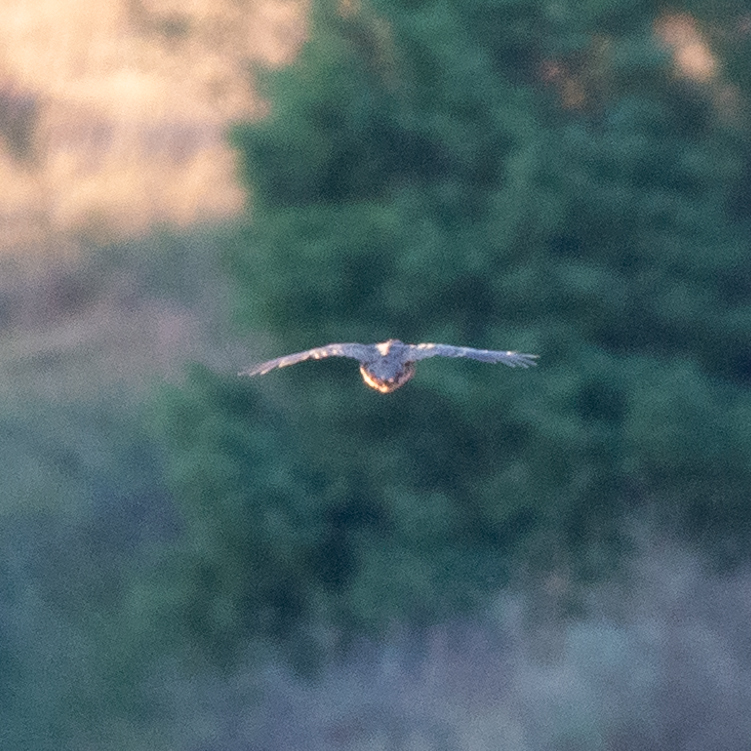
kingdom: Animalia
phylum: Chordata
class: Aves
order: Galliformes
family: Phasianidae
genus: Alectoris
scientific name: Alectoris rufa
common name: Red-legged partridge
